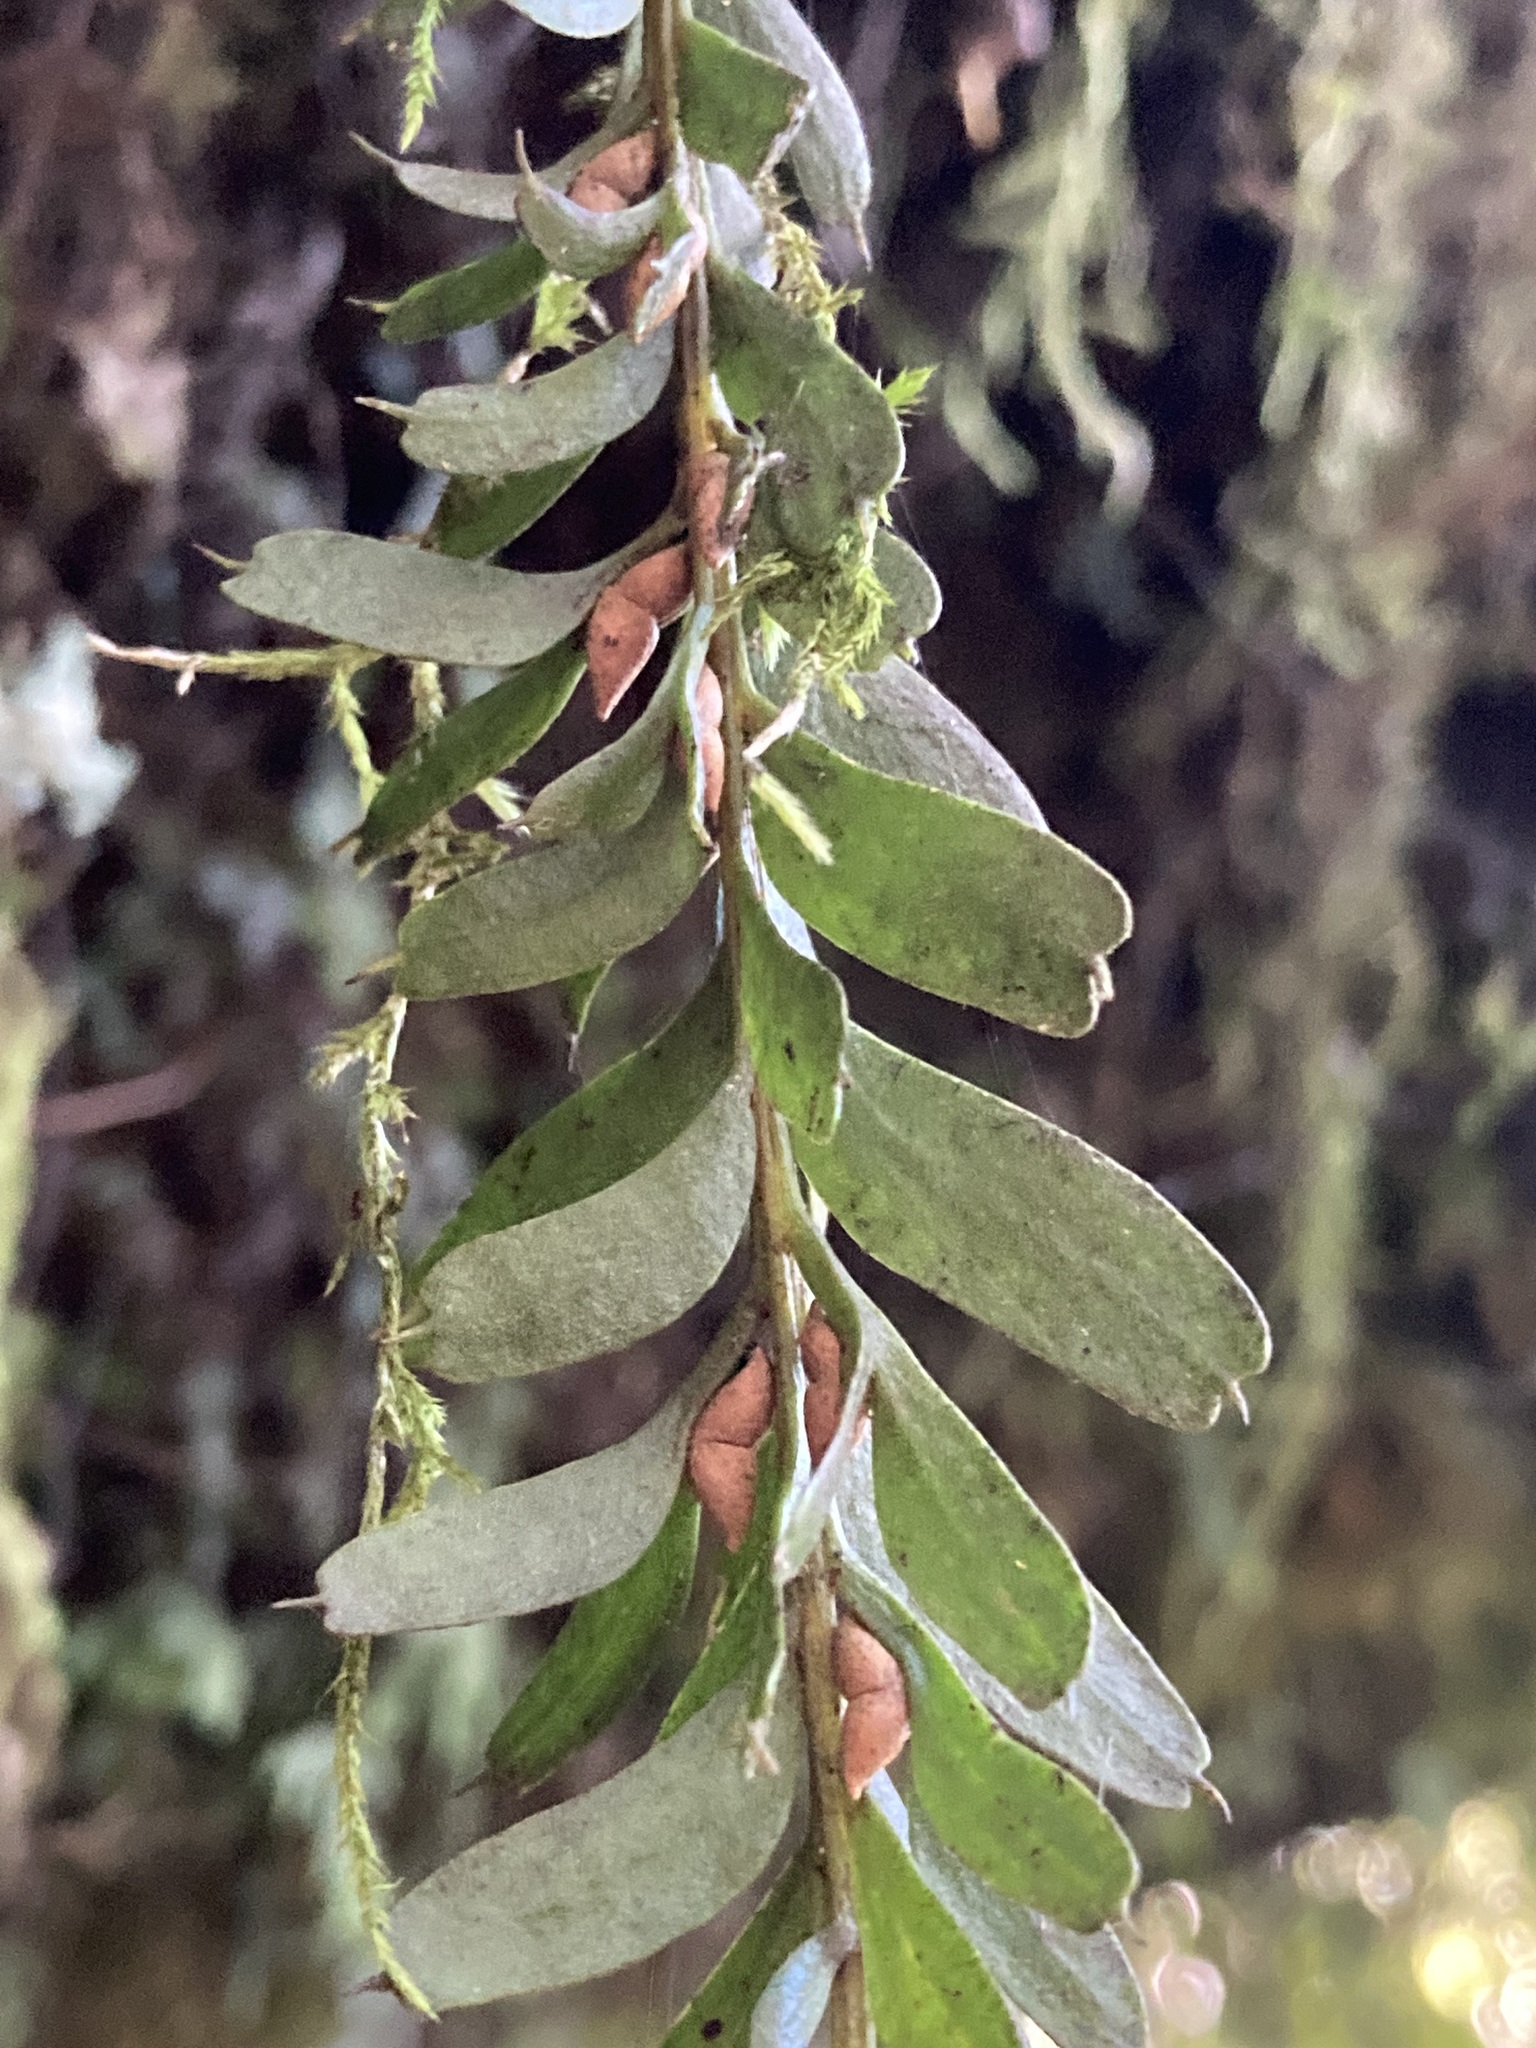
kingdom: Plantae
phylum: Tracheophyta
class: Polypodiopsida
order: Psilotales
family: Psilotaceae
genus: Tmesipteris
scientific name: Tmesipteris tannensis
